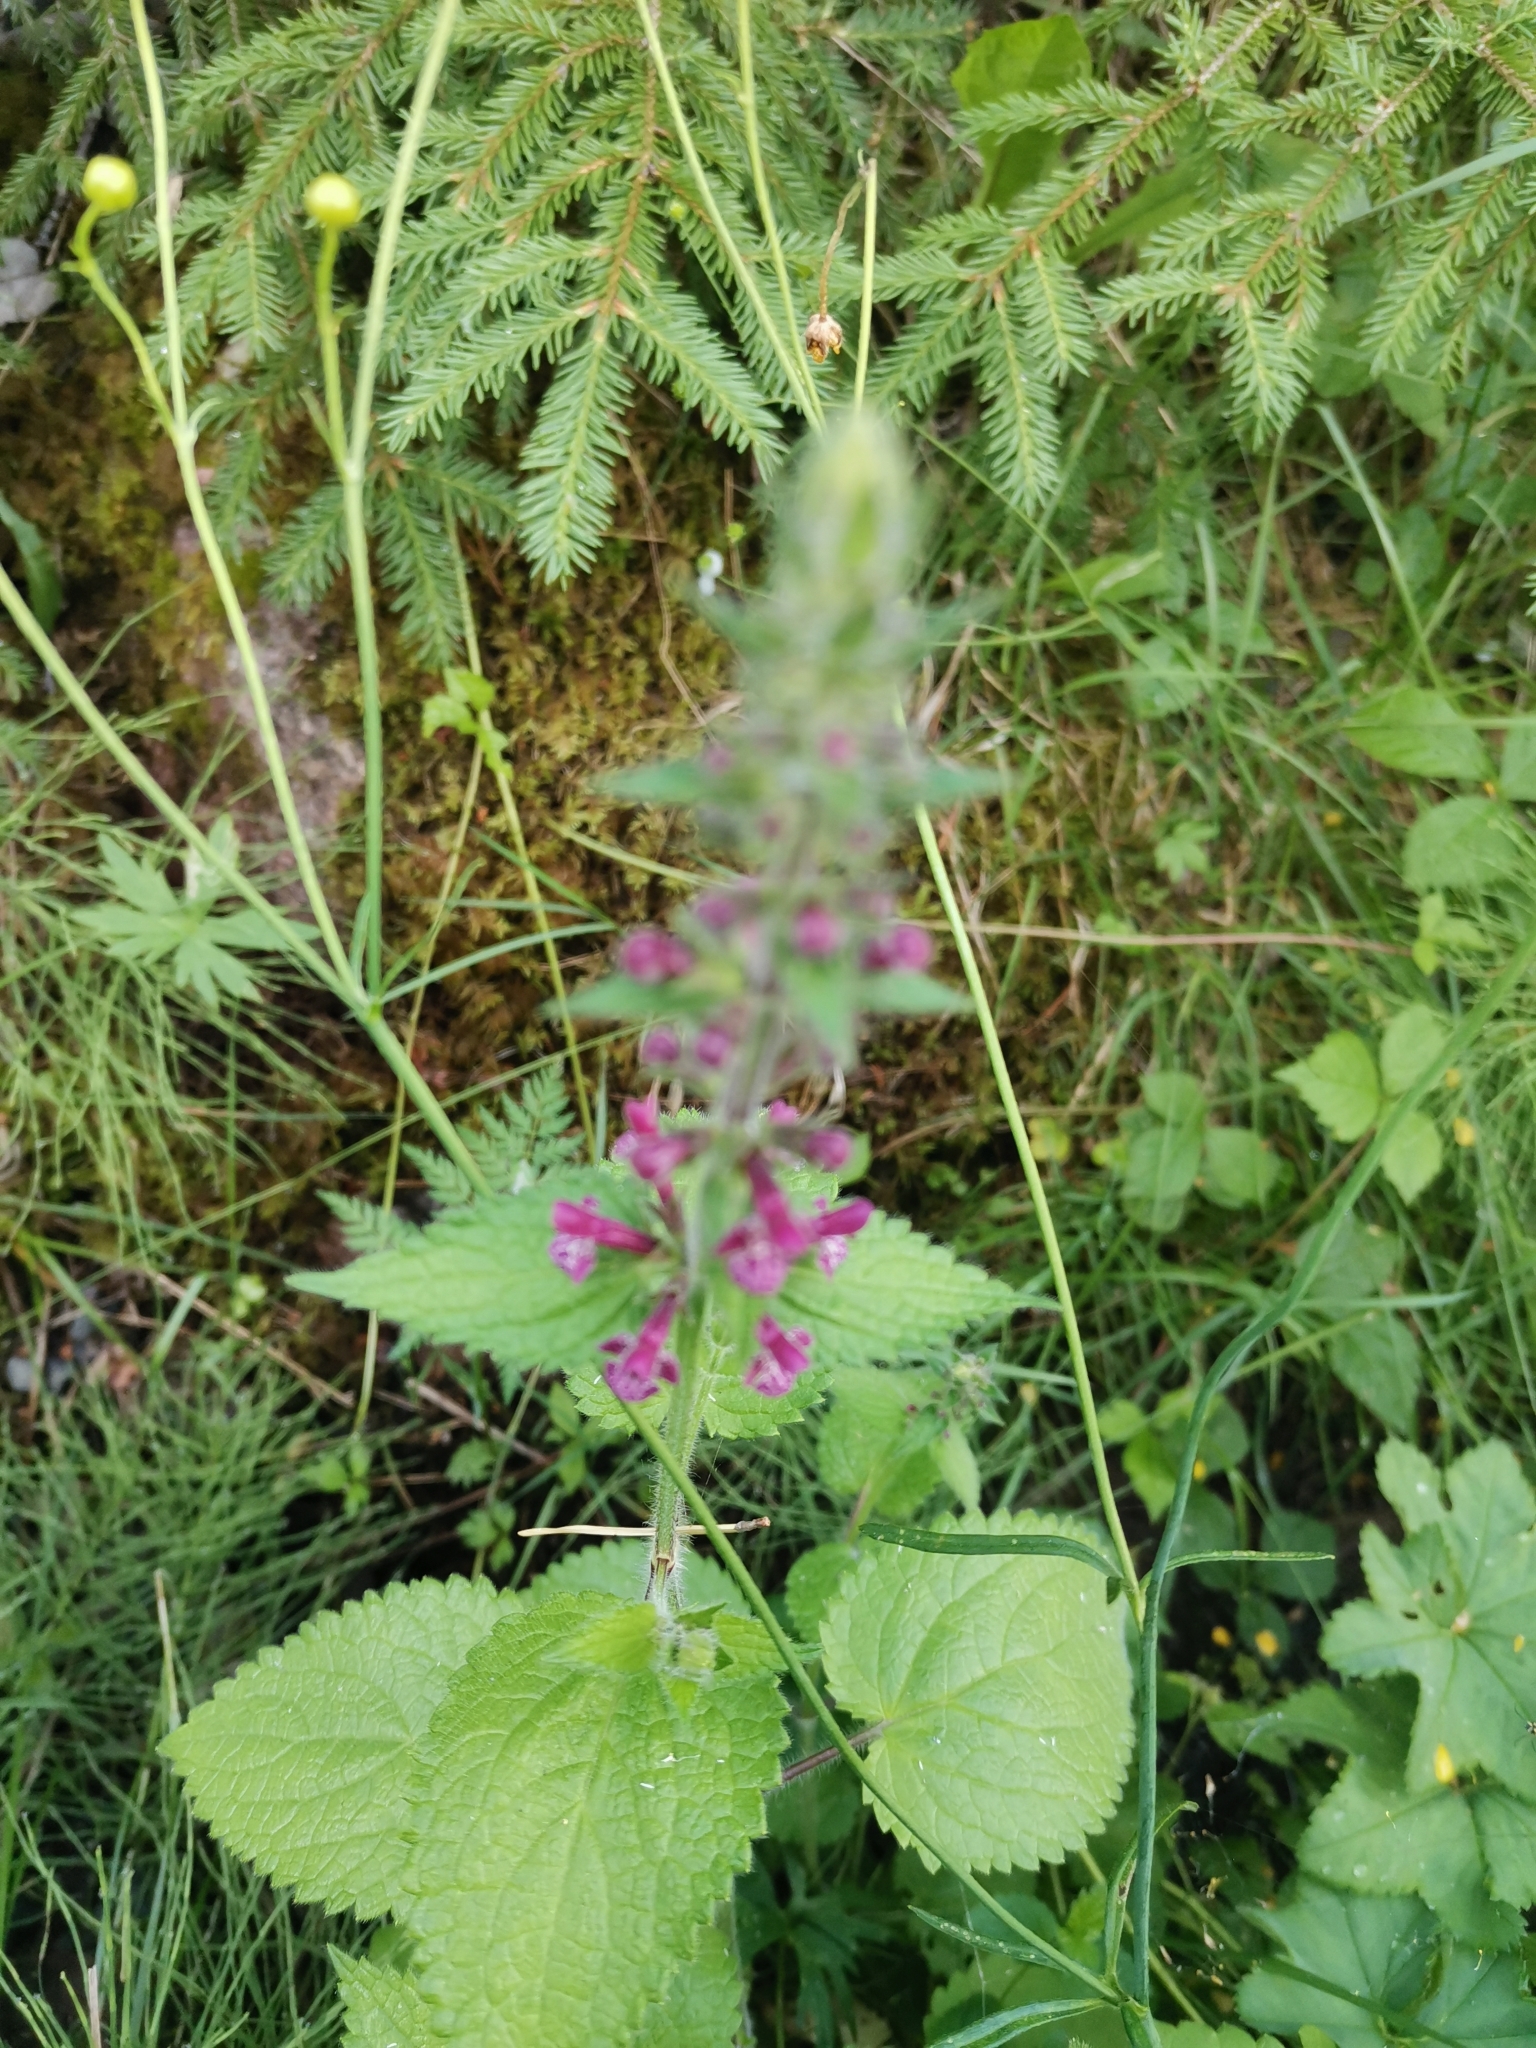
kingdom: Plantae
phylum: Tracheophyta
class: Magnoliopsida
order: Lamiales
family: Lamiaceae
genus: Stachys
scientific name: Stachys sylvatica
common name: Hedge woundwort
